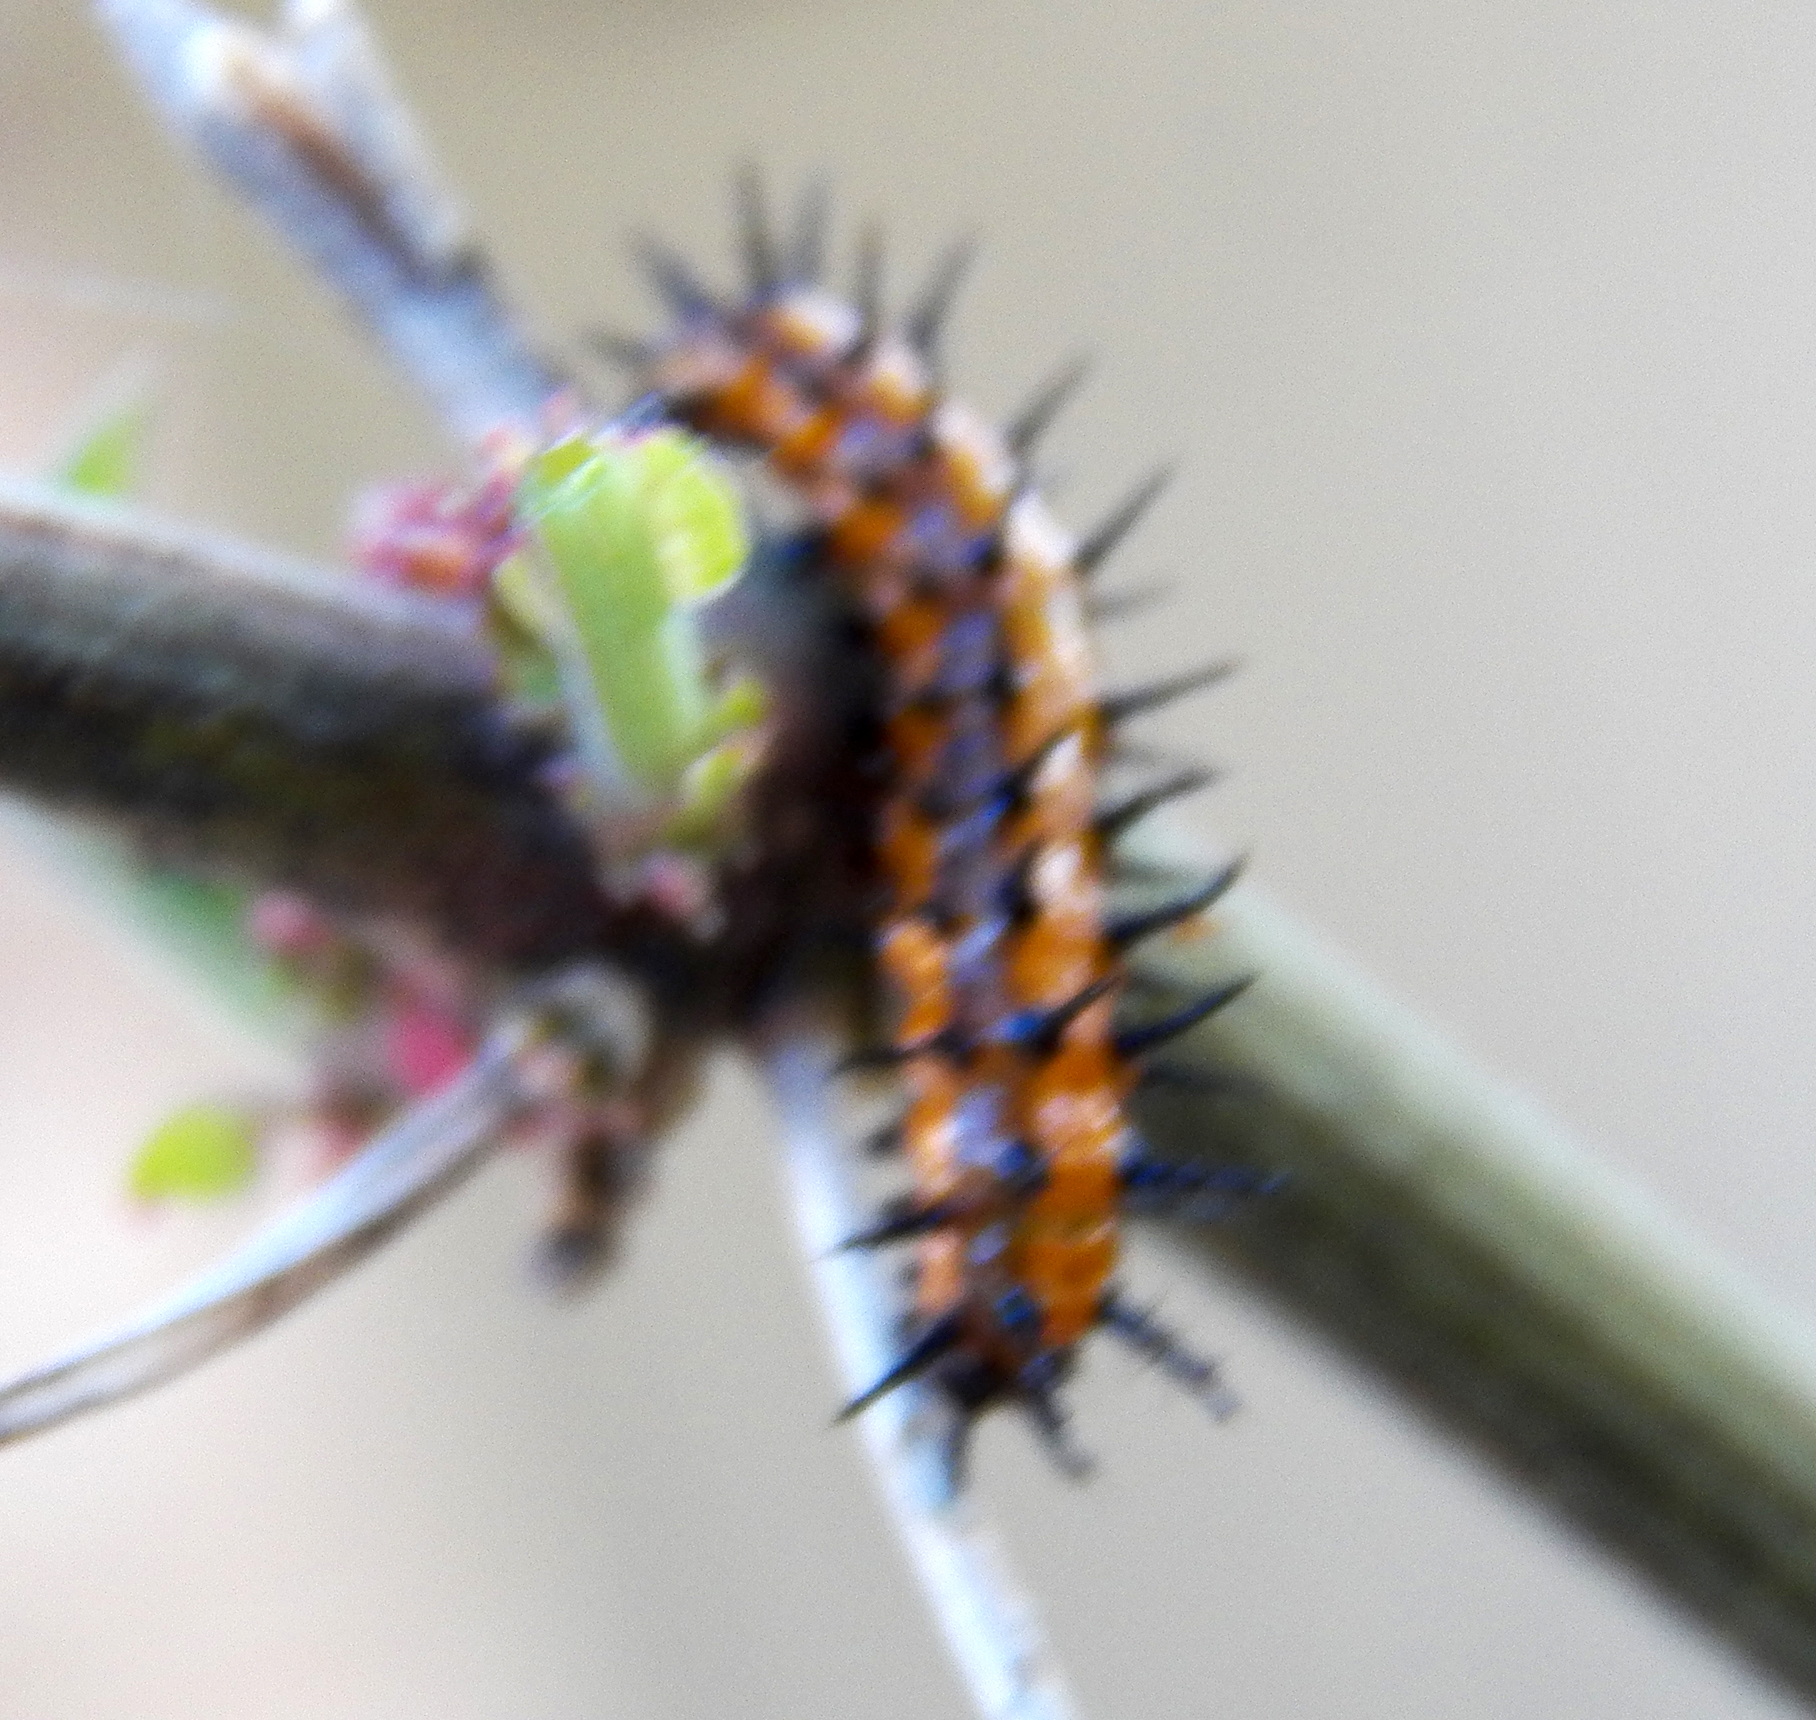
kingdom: Animalia
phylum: Arthropoda
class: Insecta
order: Lepidoptera
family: Nymphalidae
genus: Dione
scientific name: Dione vanillae
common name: Gulf fritillary
